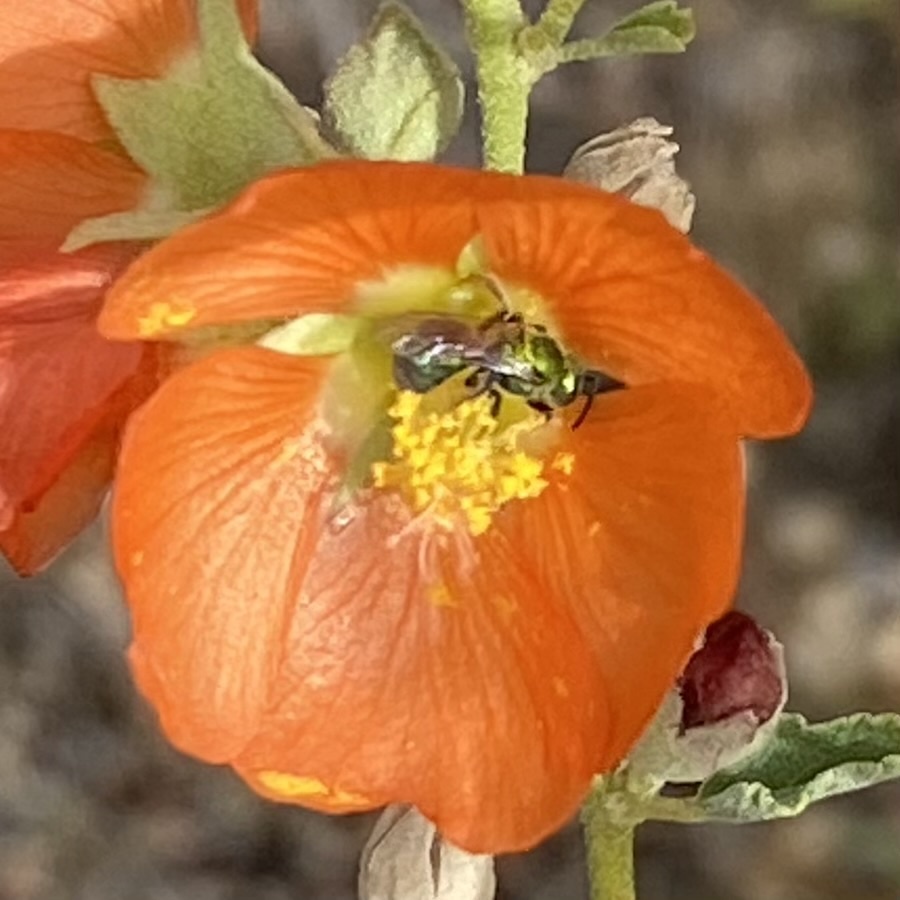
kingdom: Animalia
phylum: Arthropoda
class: Insecta
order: Hymenoptera
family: Halictidae
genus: Augochlorella
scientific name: Augochlorella
